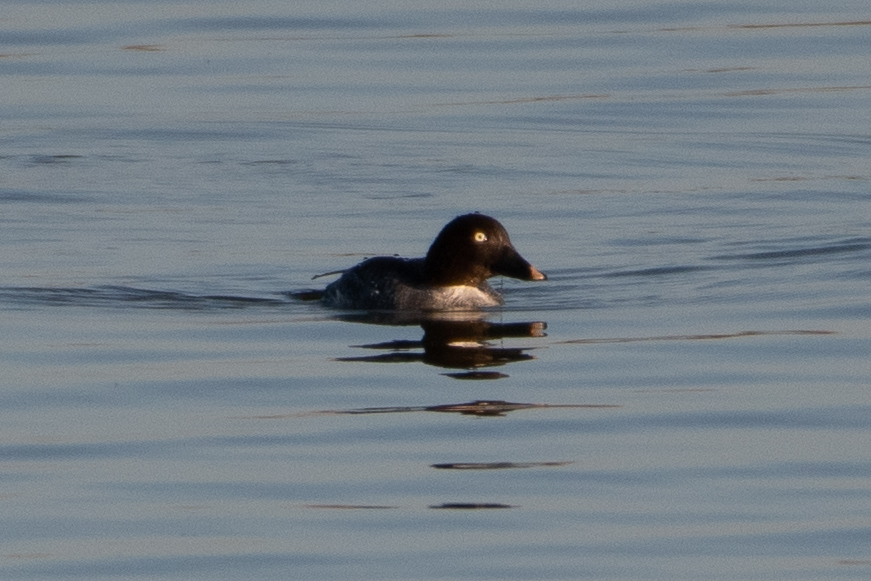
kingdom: Animalia
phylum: Chordata
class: Aves
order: Anseriformes
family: Anatidae
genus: Bucephala
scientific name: Bucephala clangula
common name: Common goldeneye
